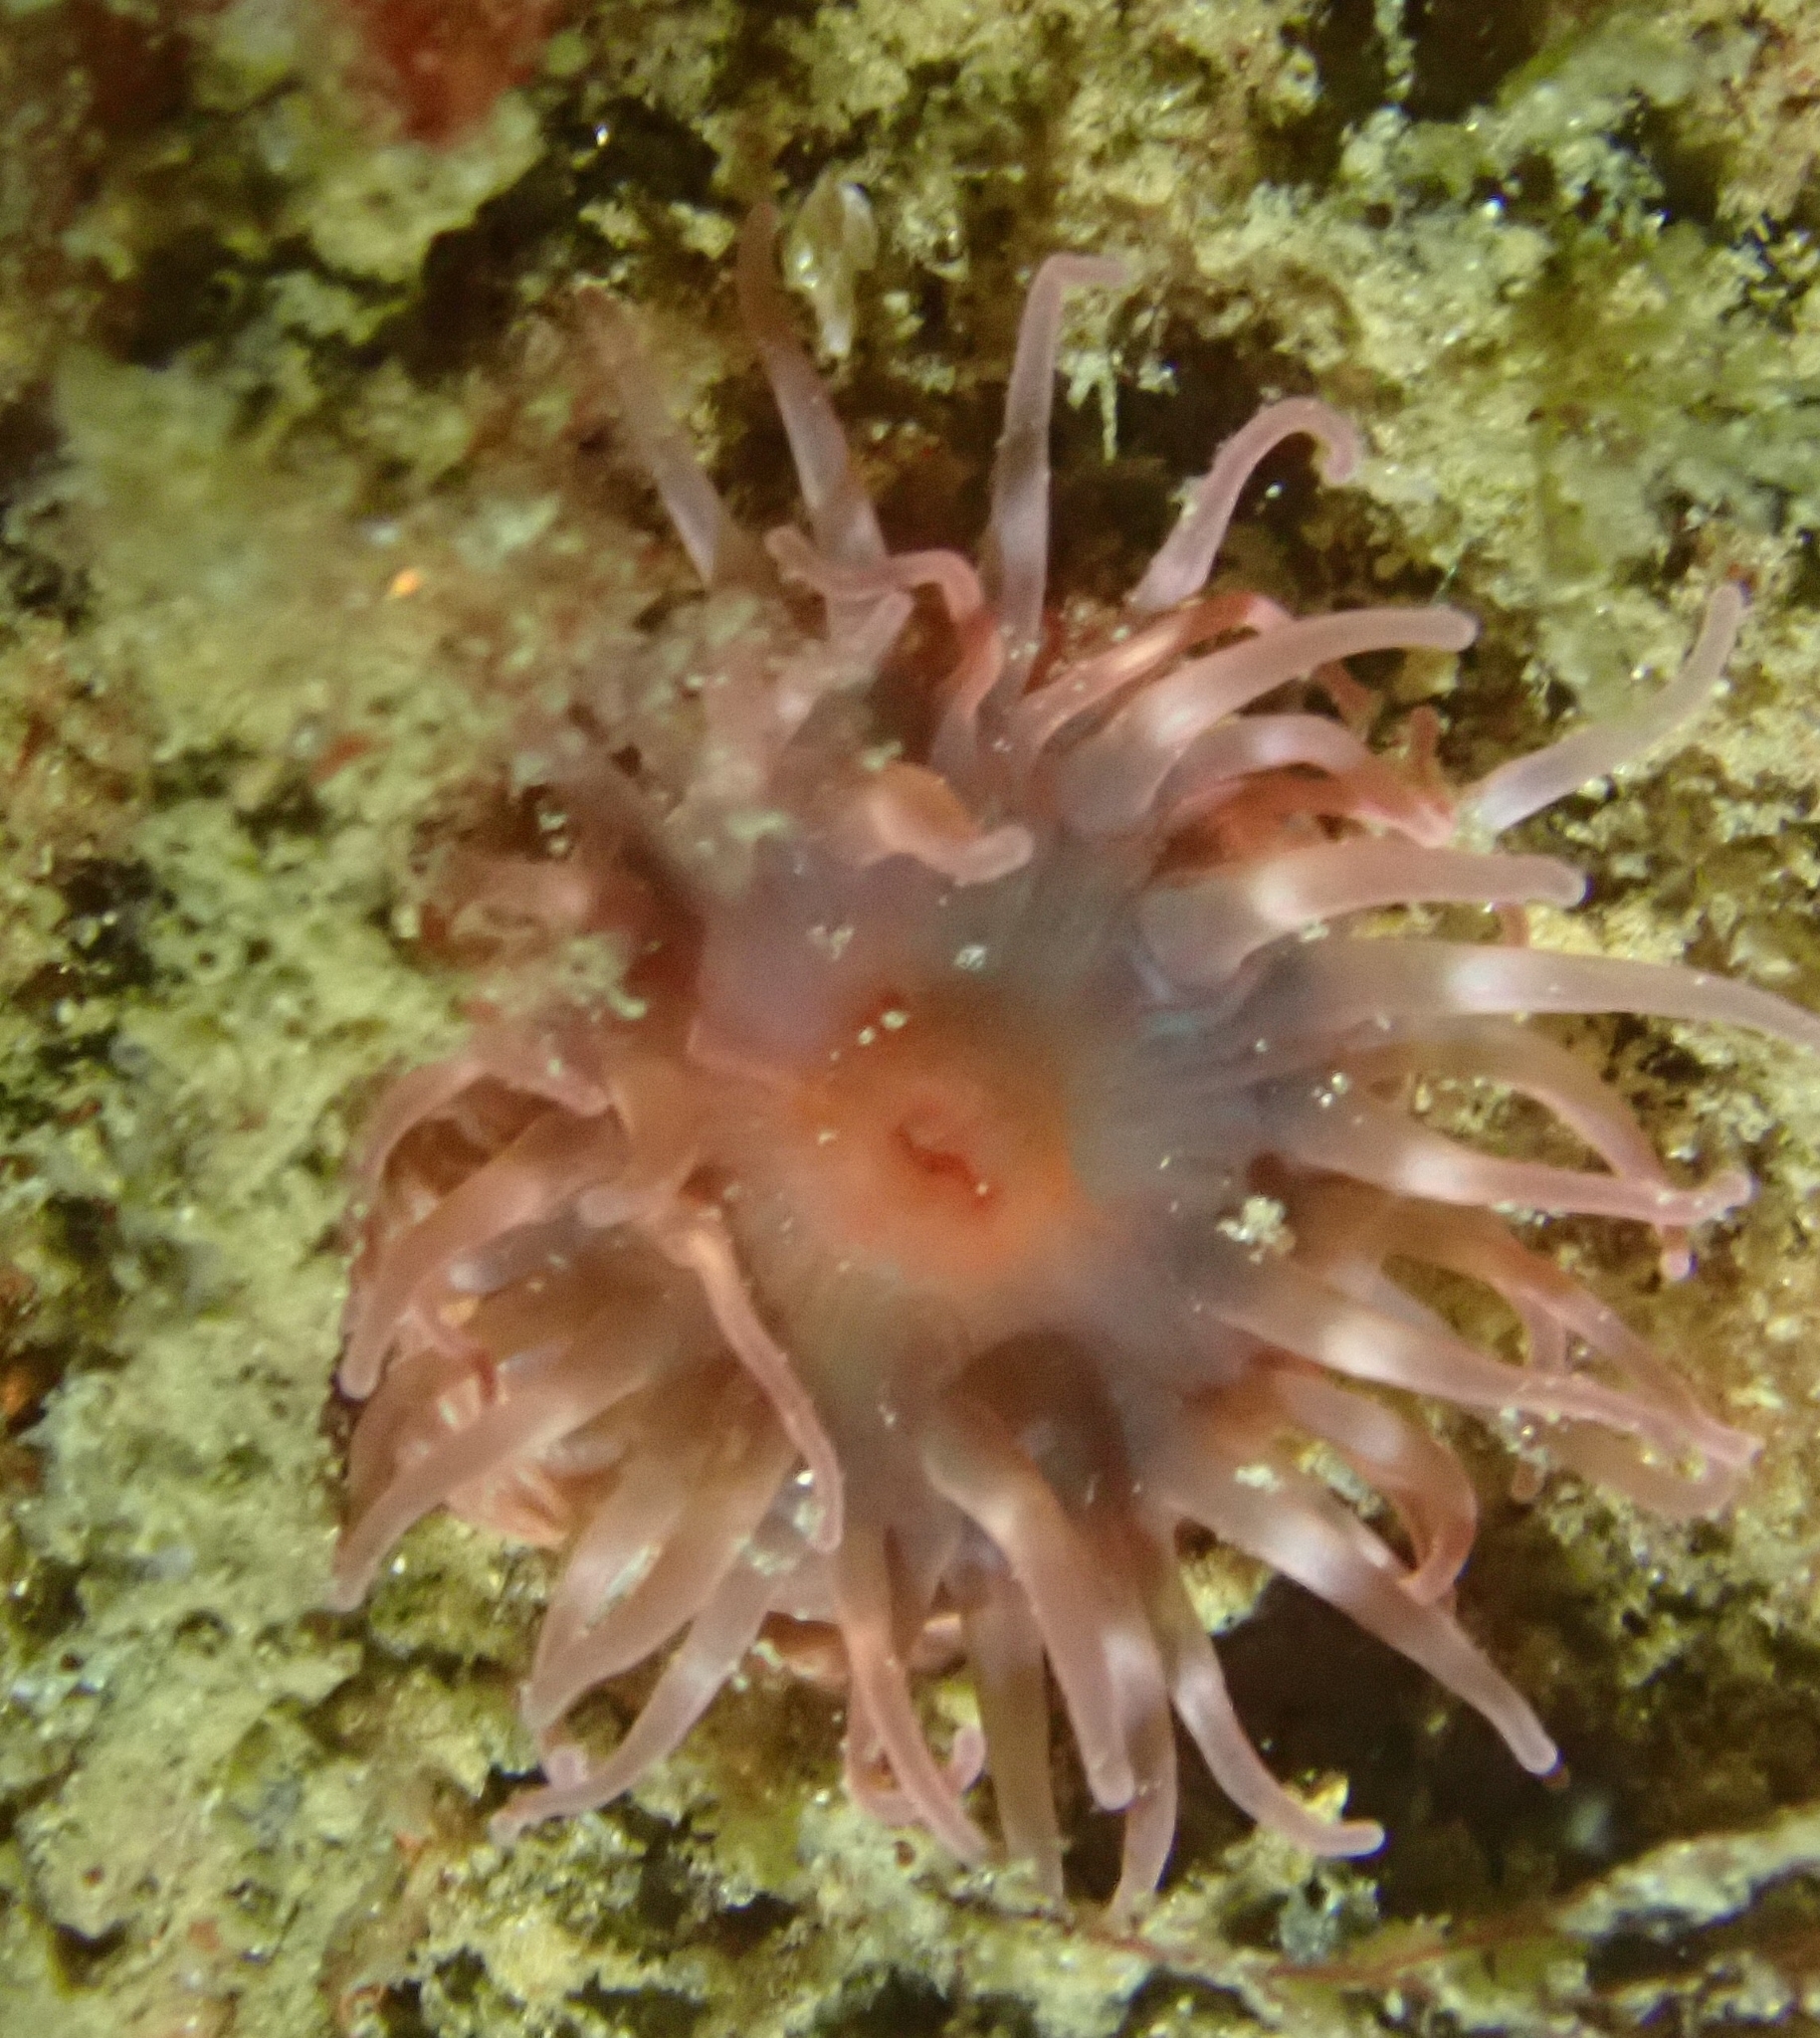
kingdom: Animalia
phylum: Cnidaria
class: Anthozoa
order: Actiniaria
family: Actiniidae
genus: Urticina
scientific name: Urticina felina
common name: Dahlia anemone
